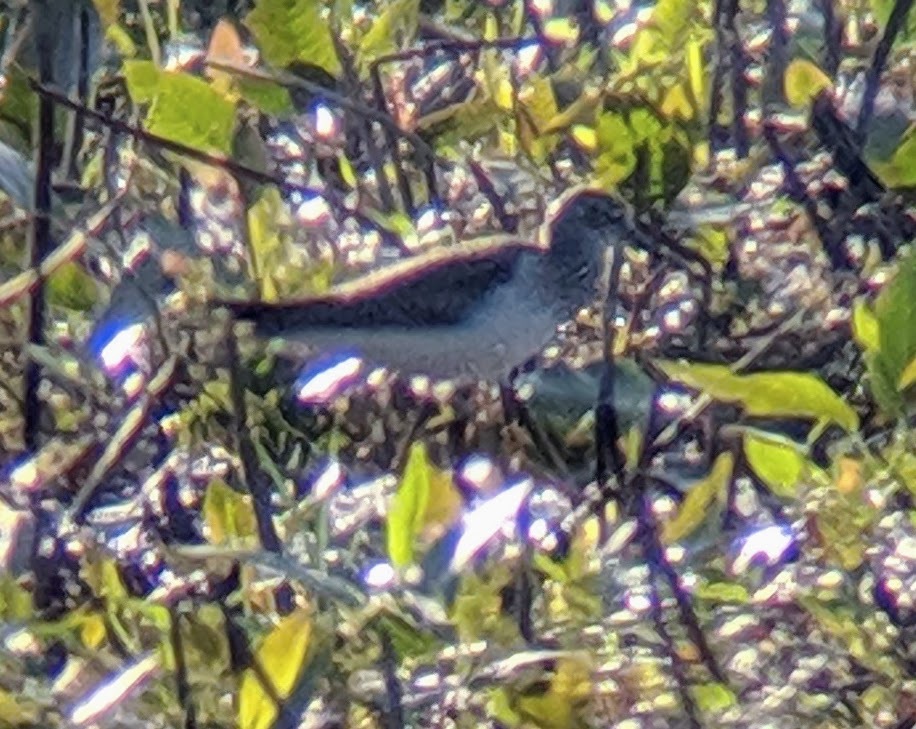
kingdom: Animalia
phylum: Chordata
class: Aves
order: Charadriiformes
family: Scolopacidae
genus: Tringa
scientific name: Tringa solitaria
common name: Solitary sandpiper
